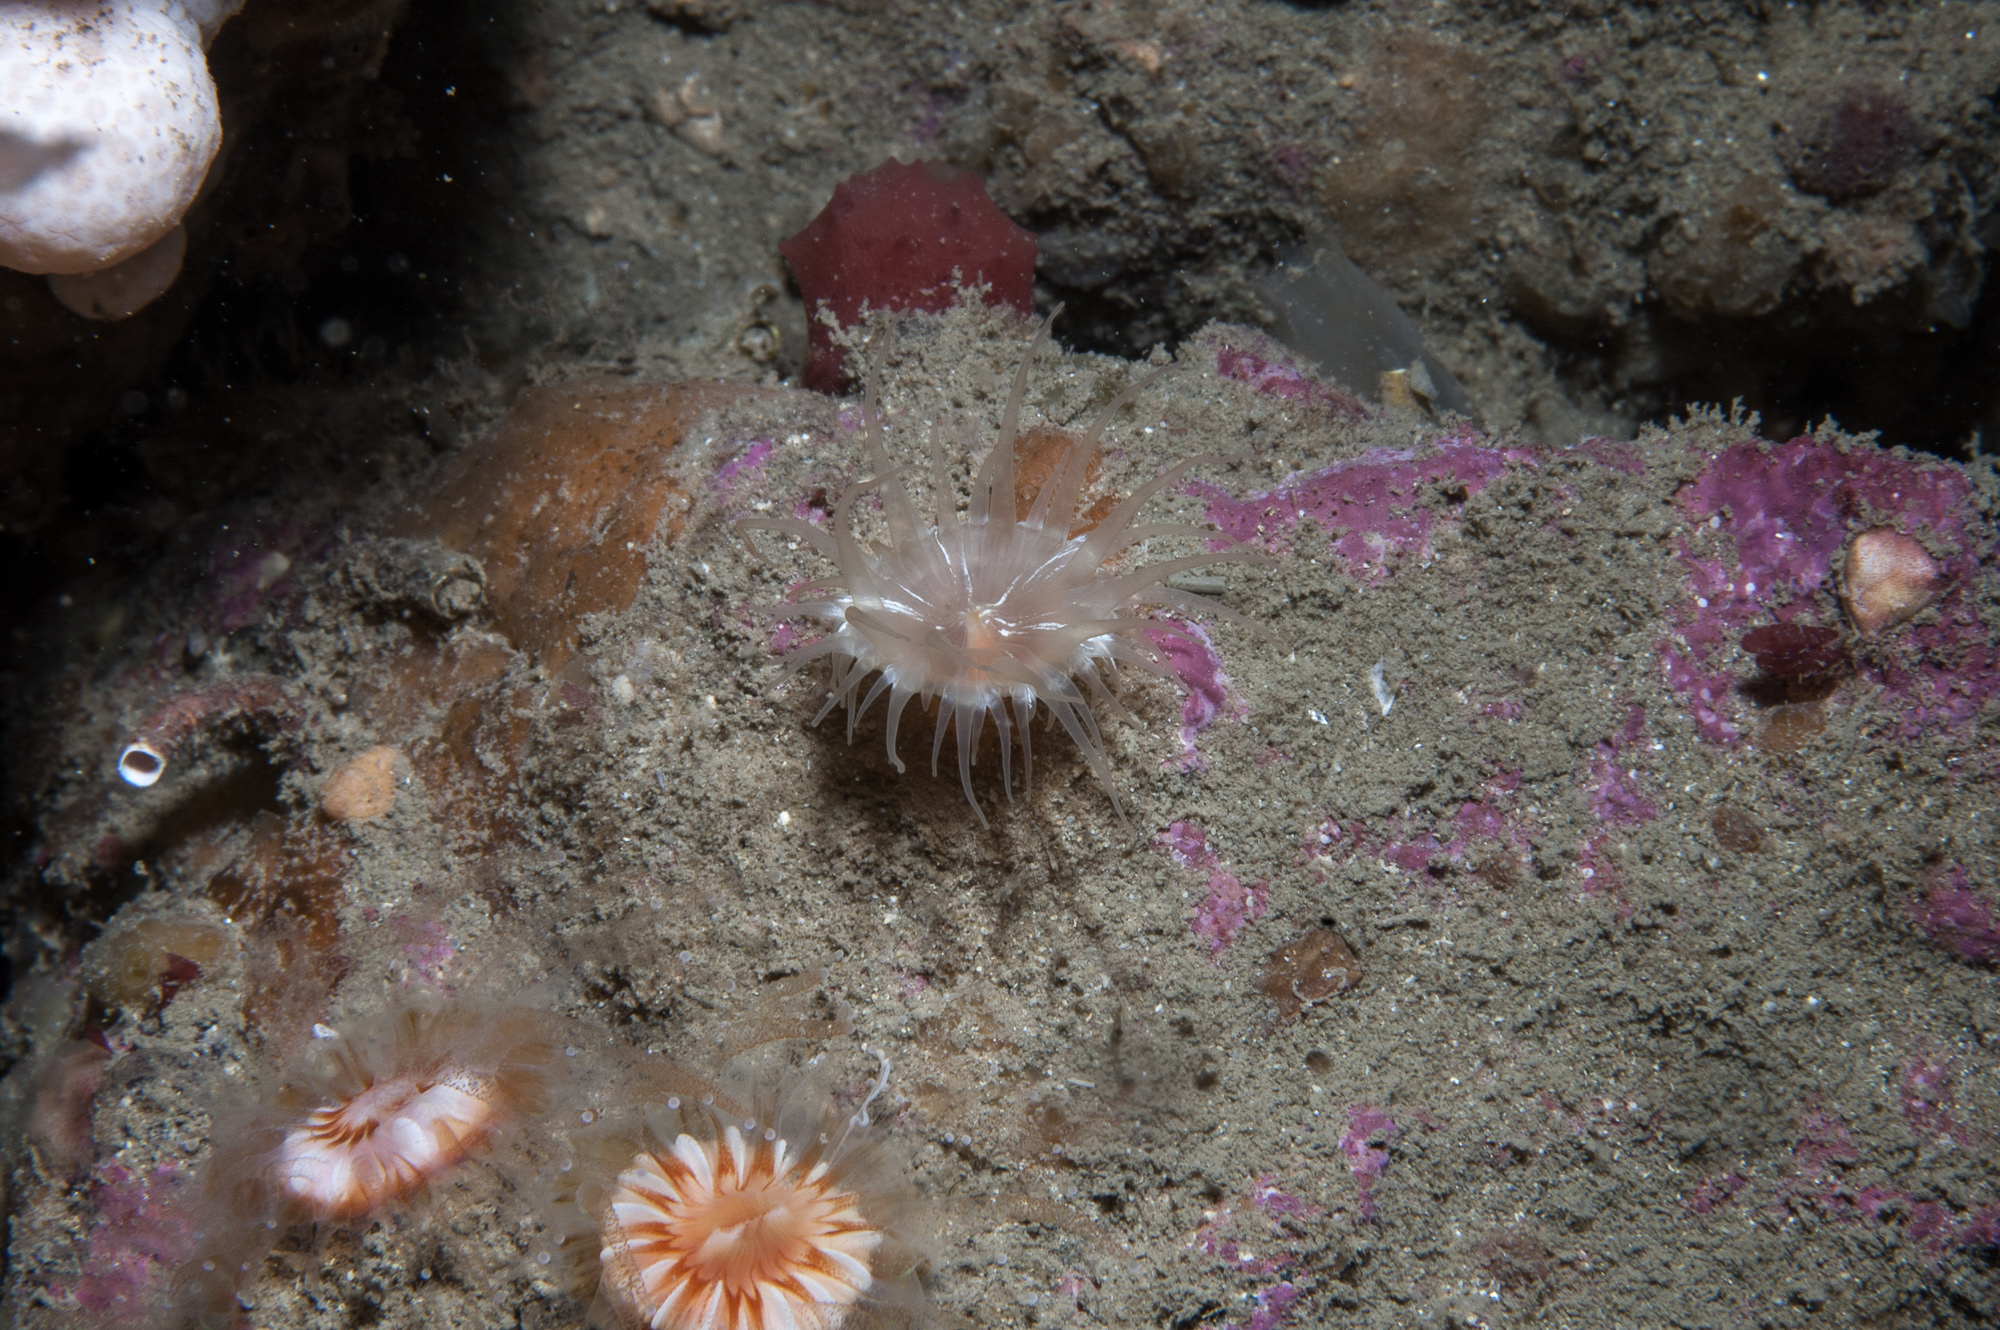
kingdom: Animalia
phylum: Cnidaria
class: Anthozoa
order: Actiniaria
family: Hormathiidae
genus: Hormathia
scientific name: Hormathia coronata
